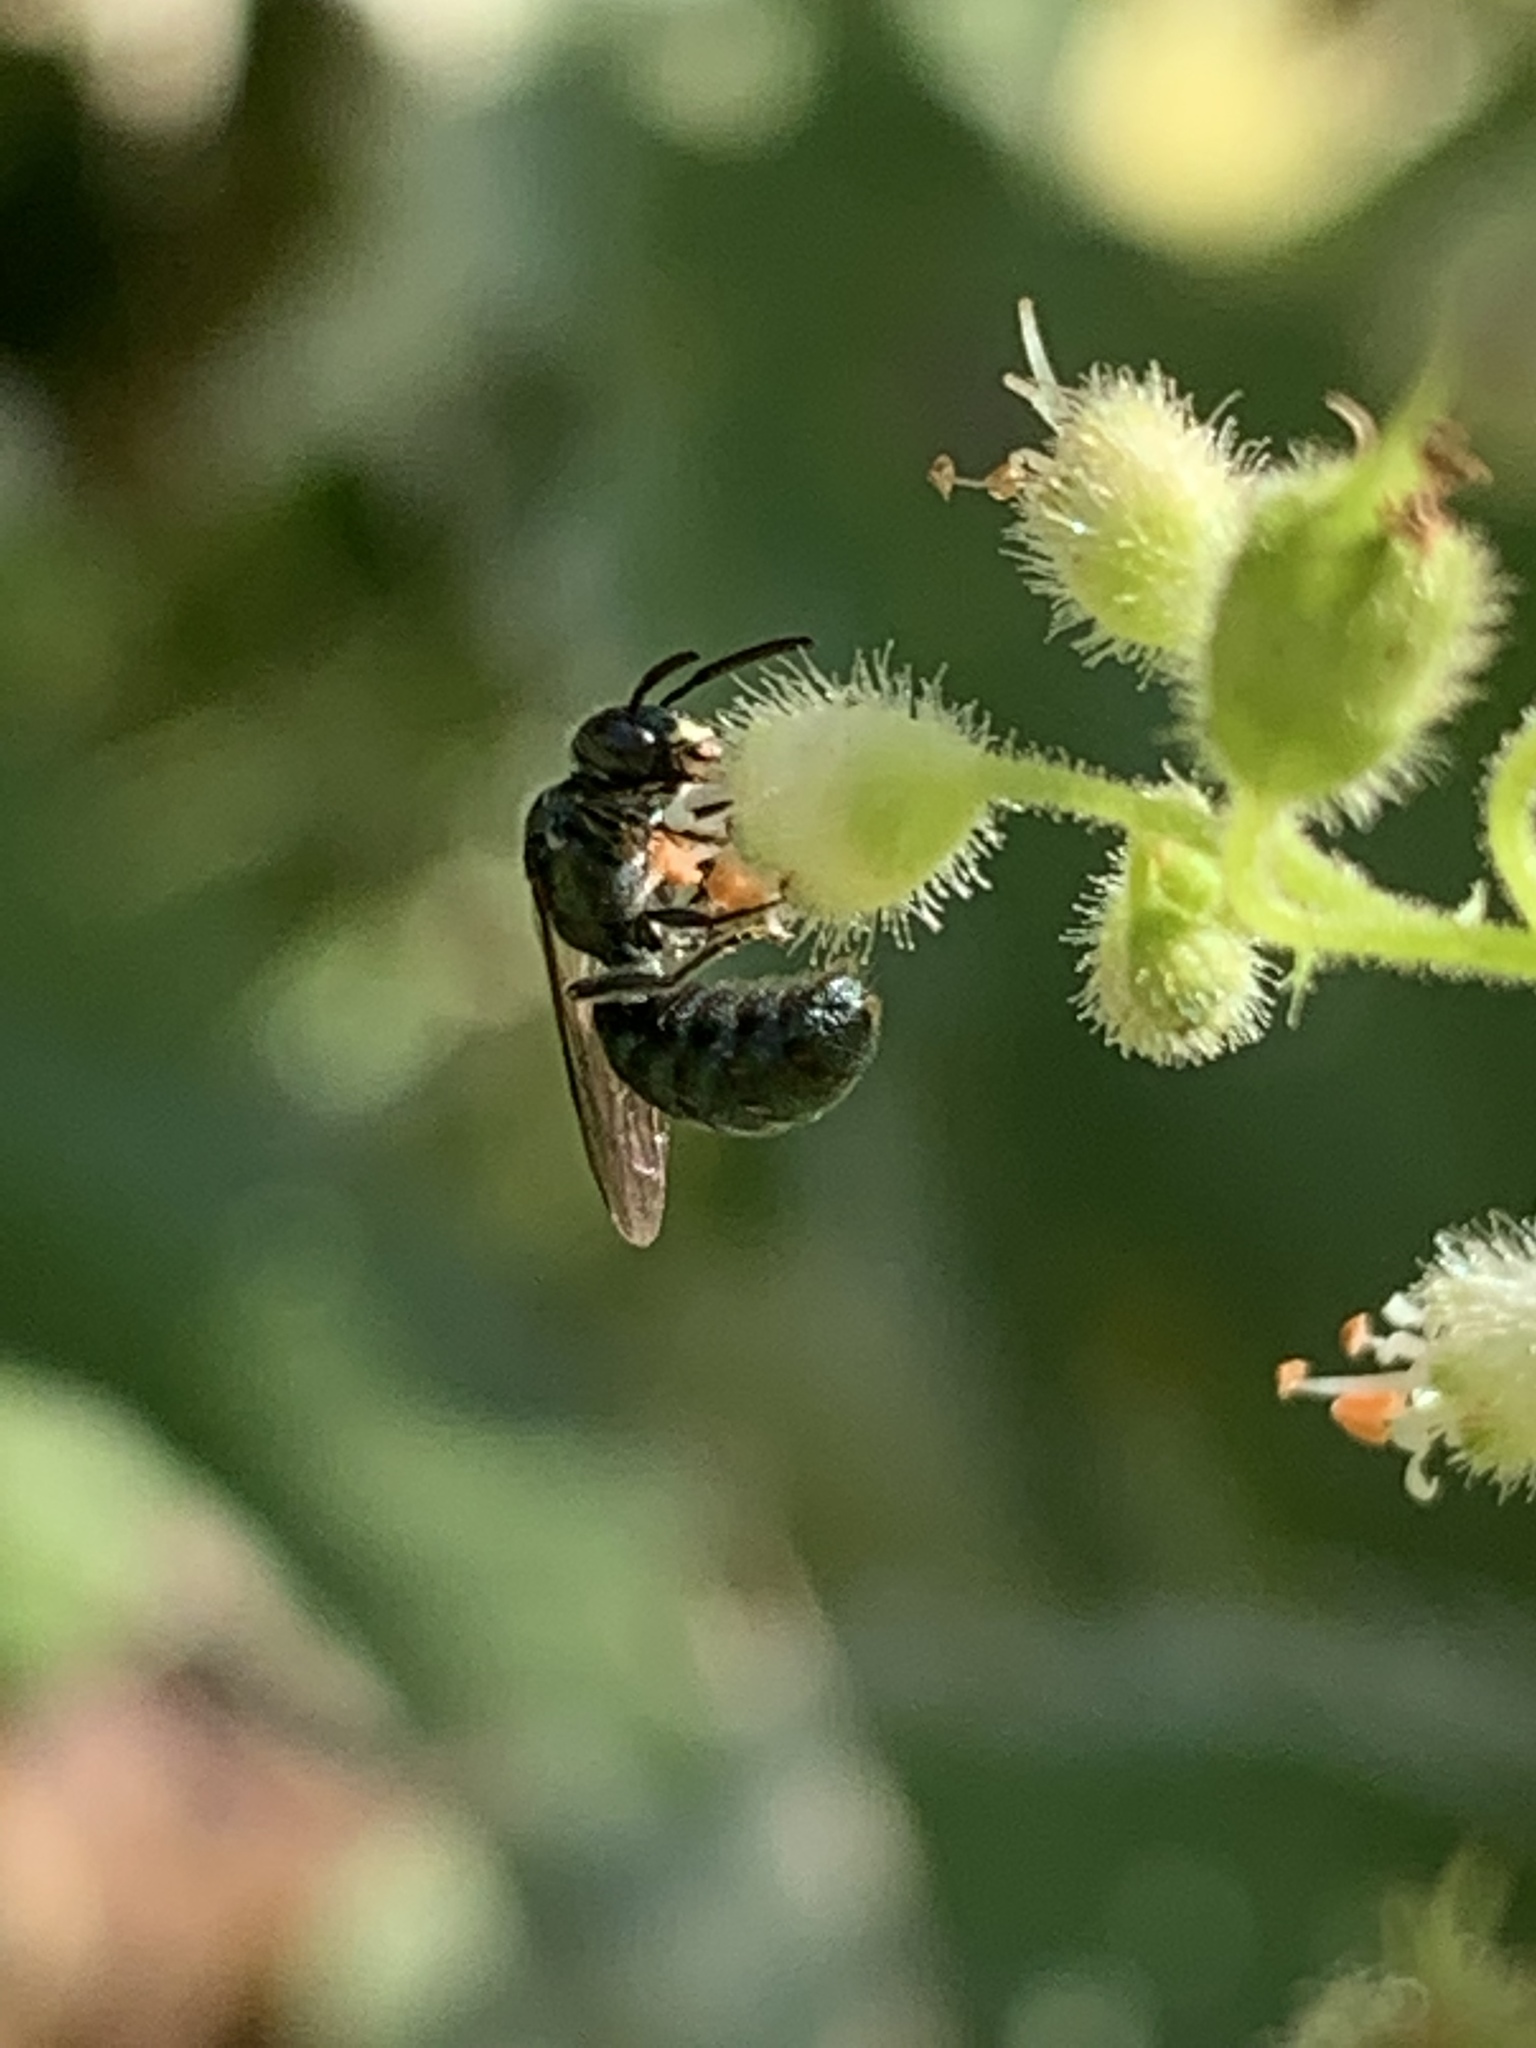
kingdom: Animalia
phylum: Arthropoda
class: Insecta
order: Hymenoptera
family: Apidae
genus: Zadontomerus
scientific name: Zadontomerus
